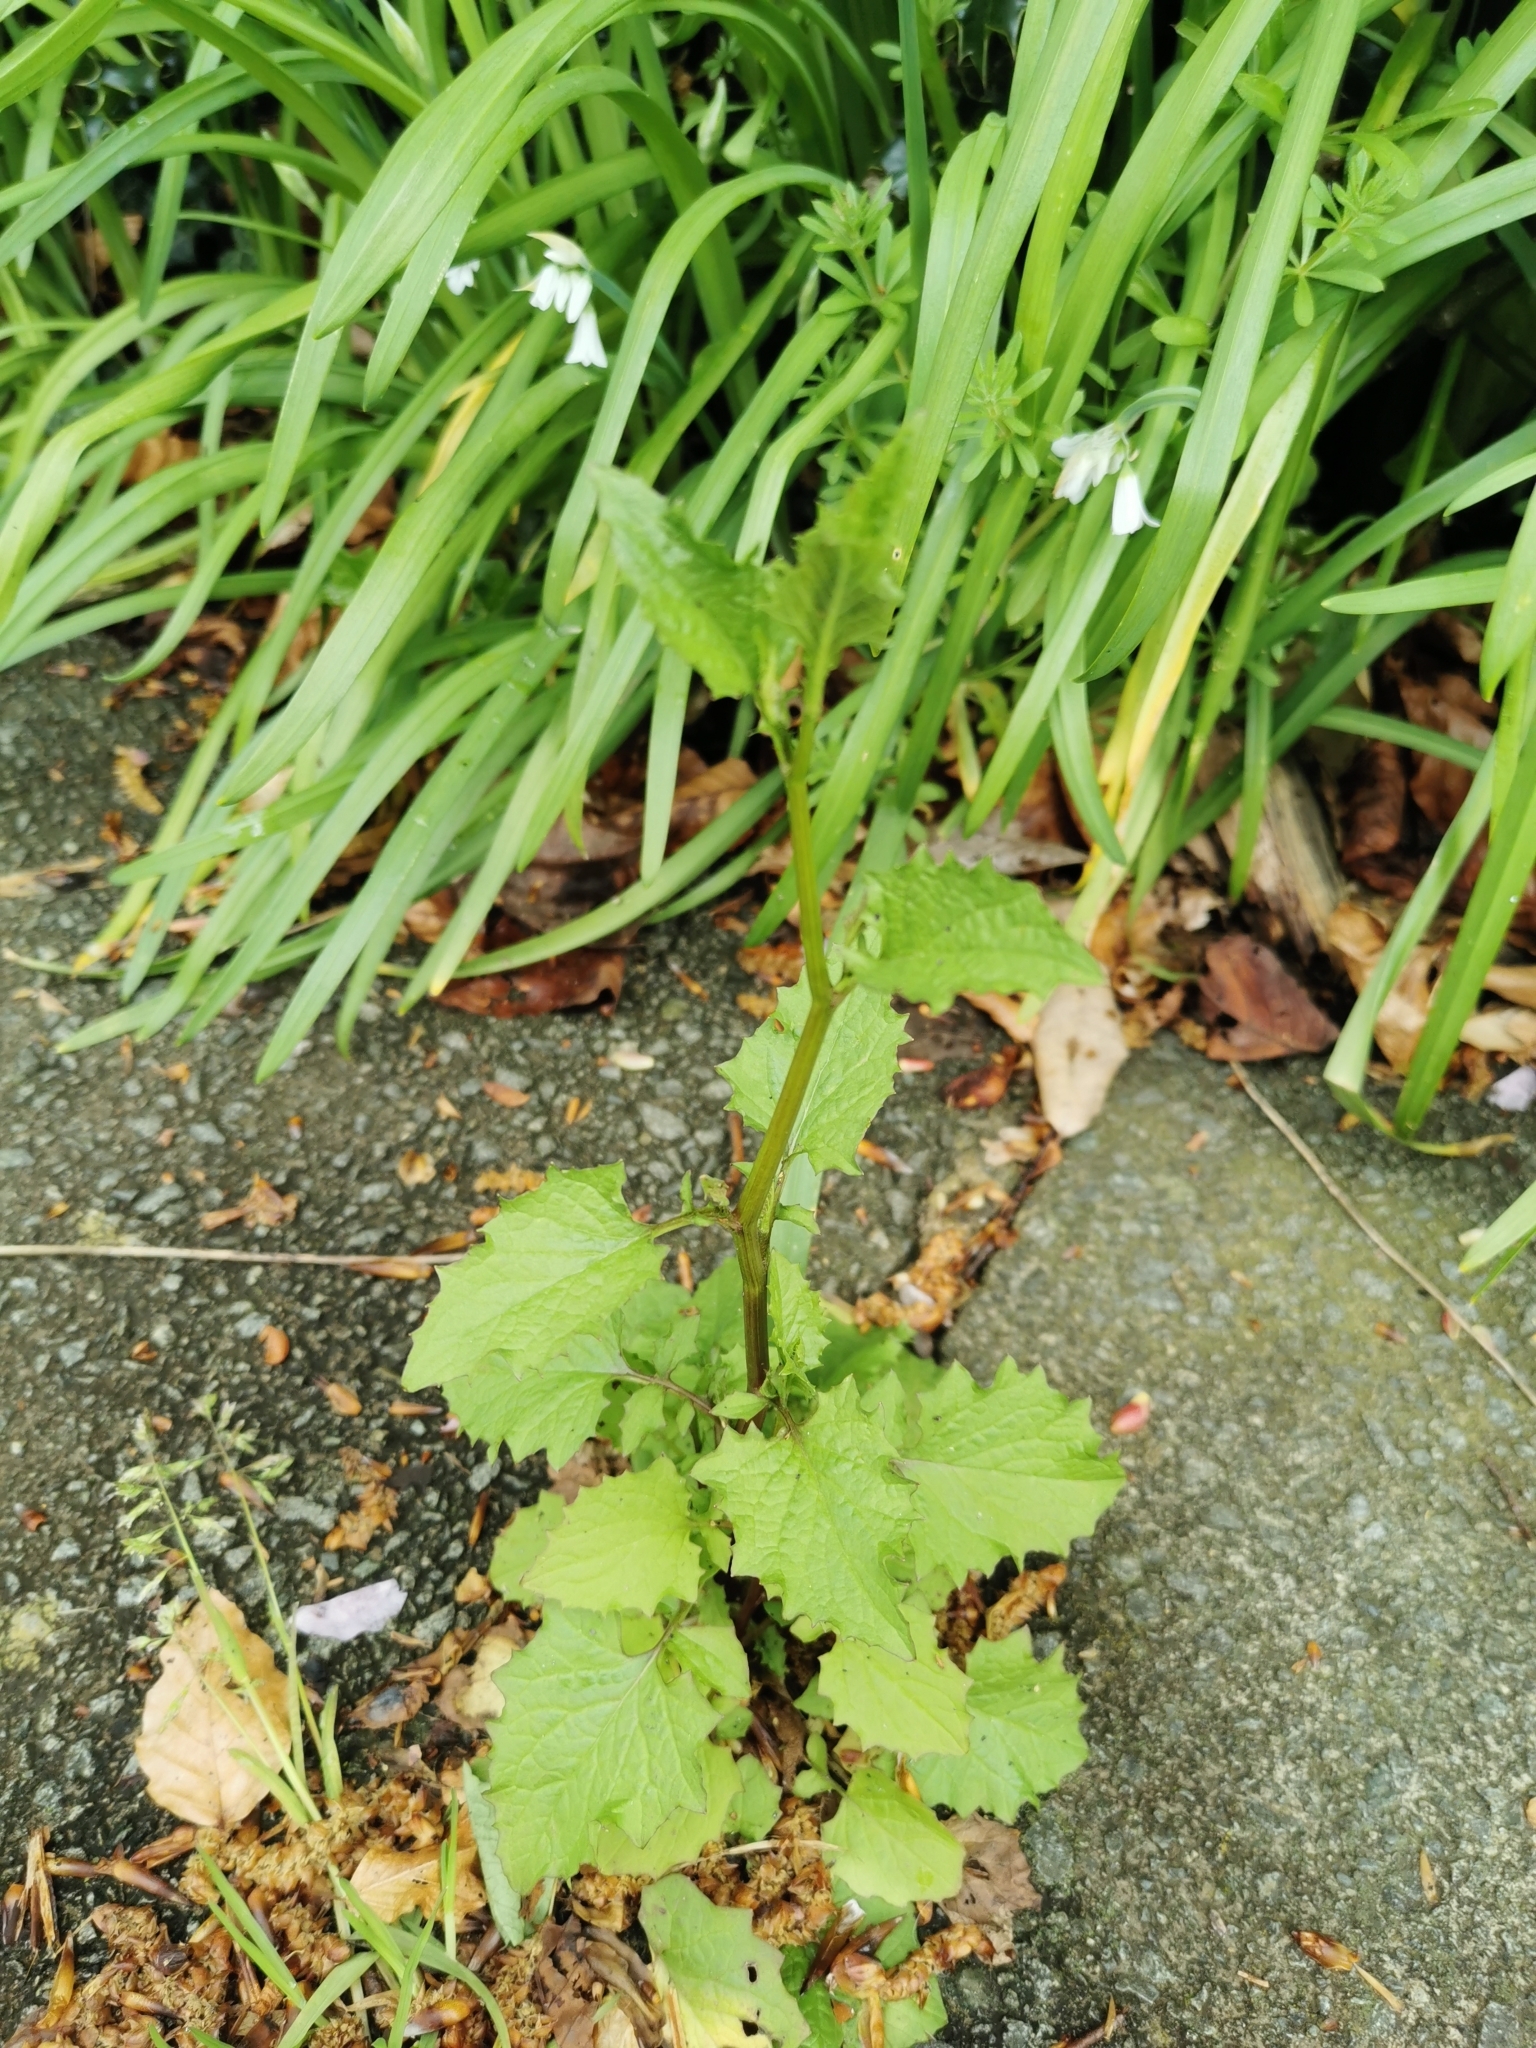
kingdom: Plantae
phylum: Tracheophyta
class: Magnoliopsida
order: Asterales
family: Asteraceae
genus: Lapsana
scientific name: Lapsana communis
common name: Nipplewort
